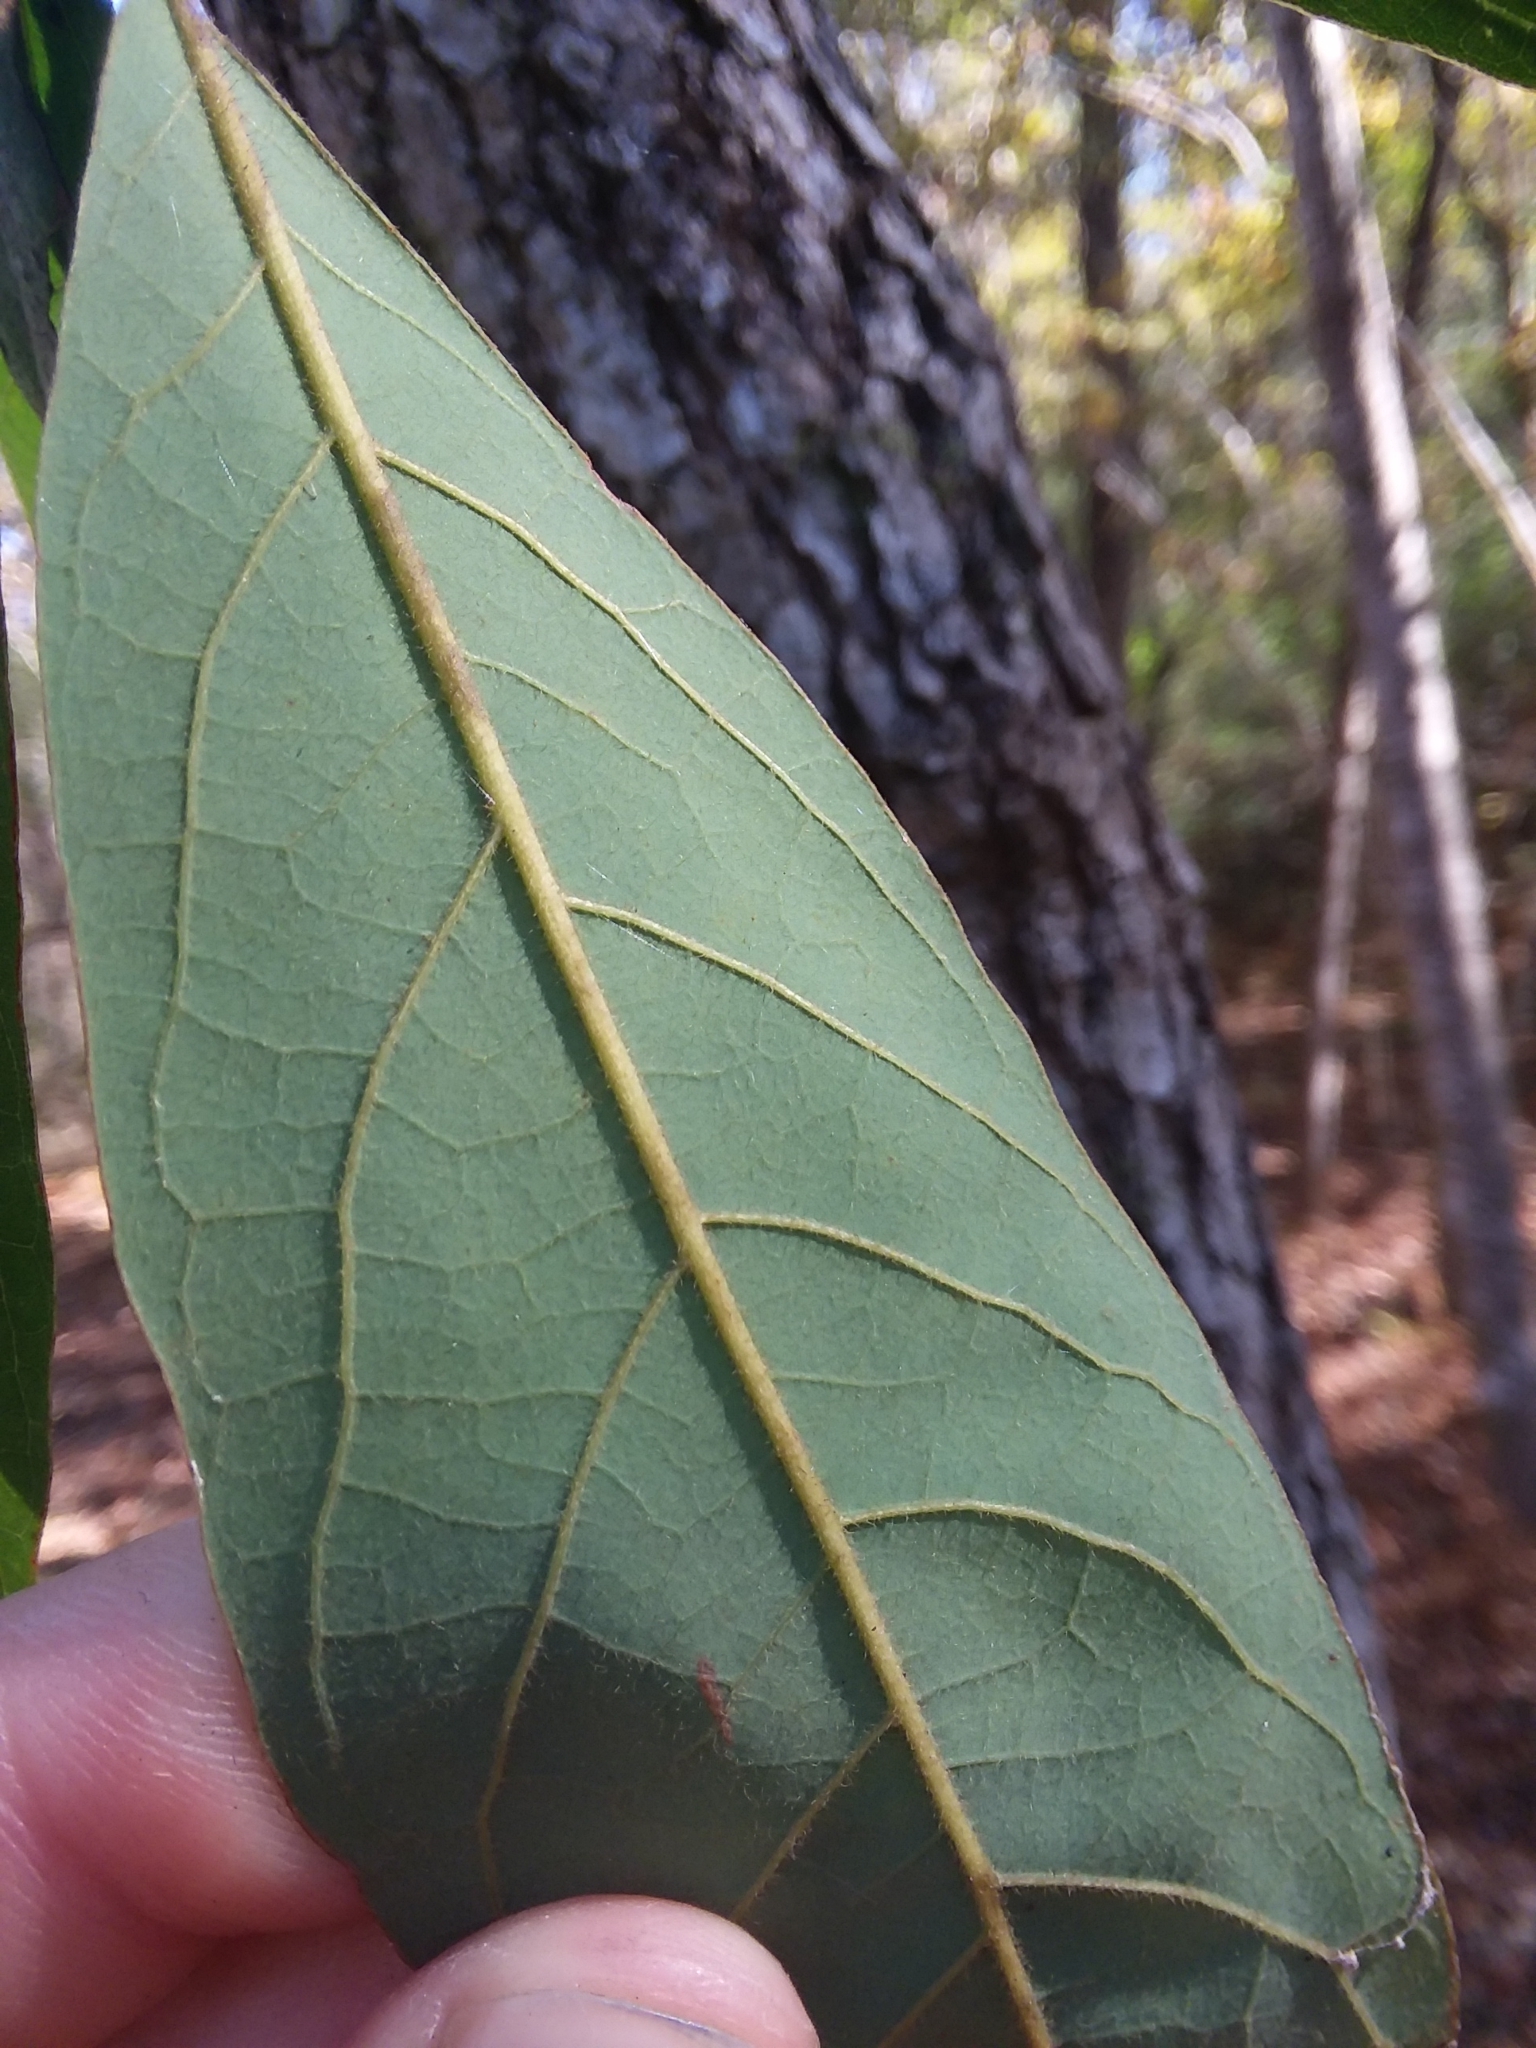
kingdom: Plantae
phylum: Tracheophyta
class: Magnoliopsida
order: Laurales
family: Lauraceae
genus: Persea
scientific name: Persea palustris
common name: Swampbay
